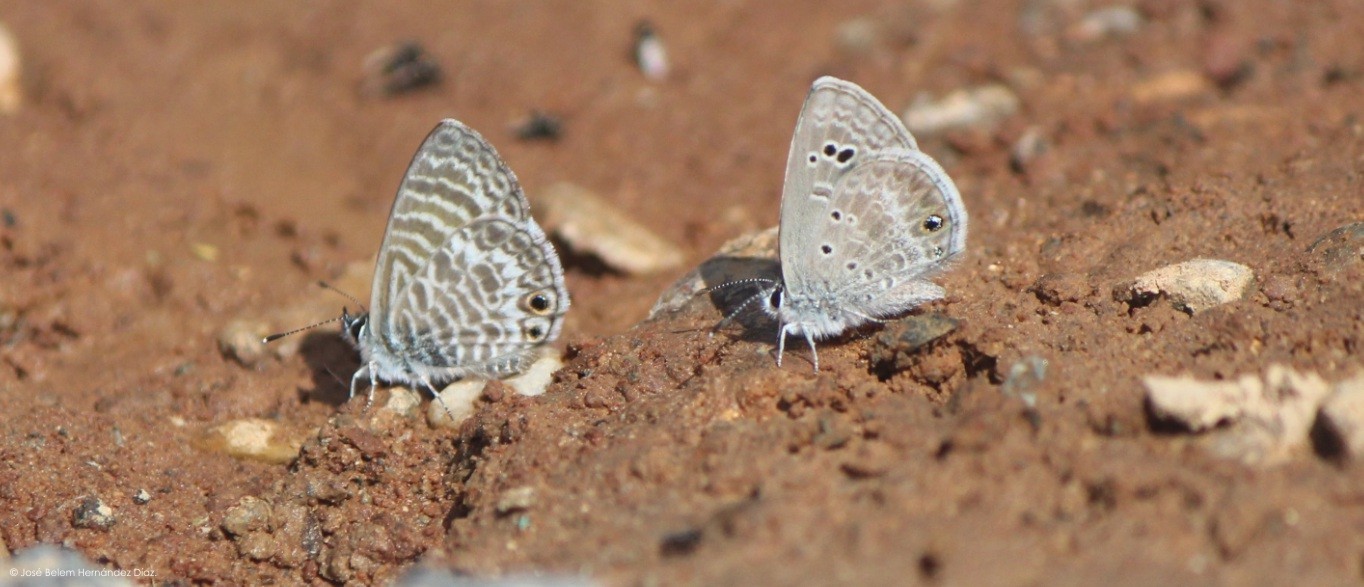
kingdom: Animalia
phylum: Arthropoda
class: Insecta
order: Lepidoptera
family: Lycaenidae
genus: Leptotes
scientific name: Leptotes marina
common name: Marine blue
